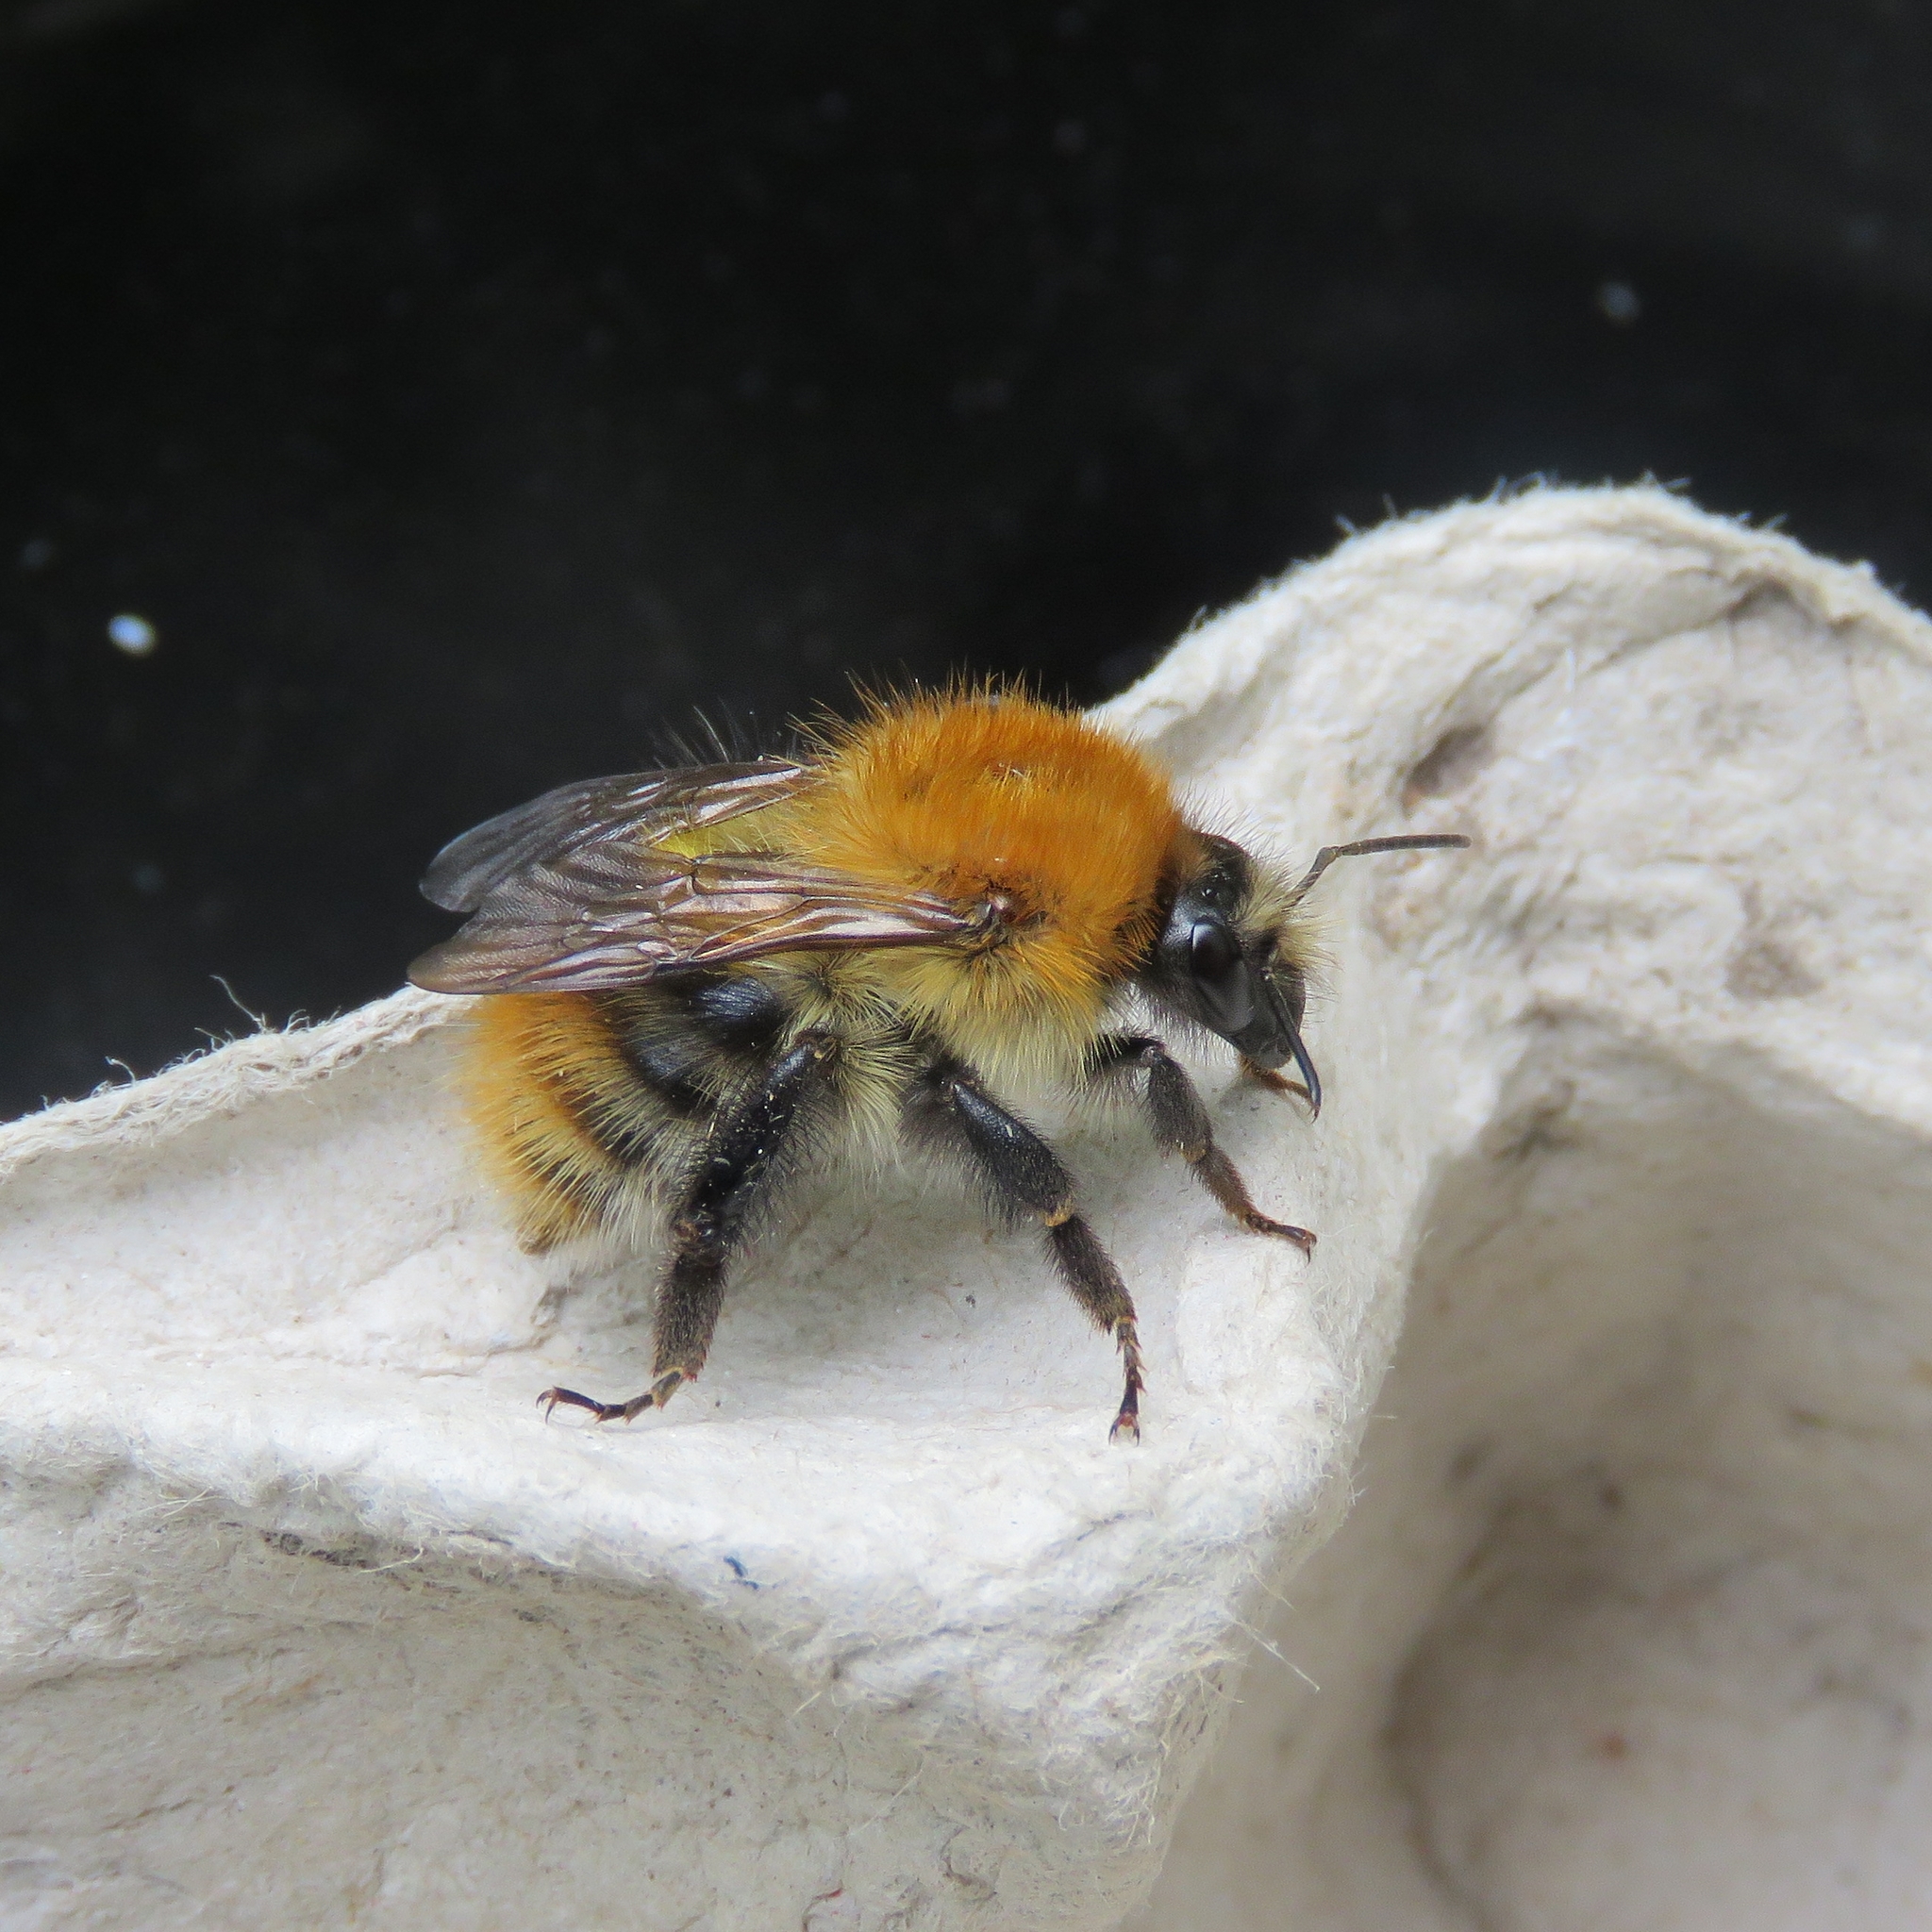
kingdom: Animalia
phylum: Arthropoda
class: Insecta
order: Hymenoptera
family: Apidae
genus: Bombus
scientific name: Bombus pascuorum
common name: Common carder bee
